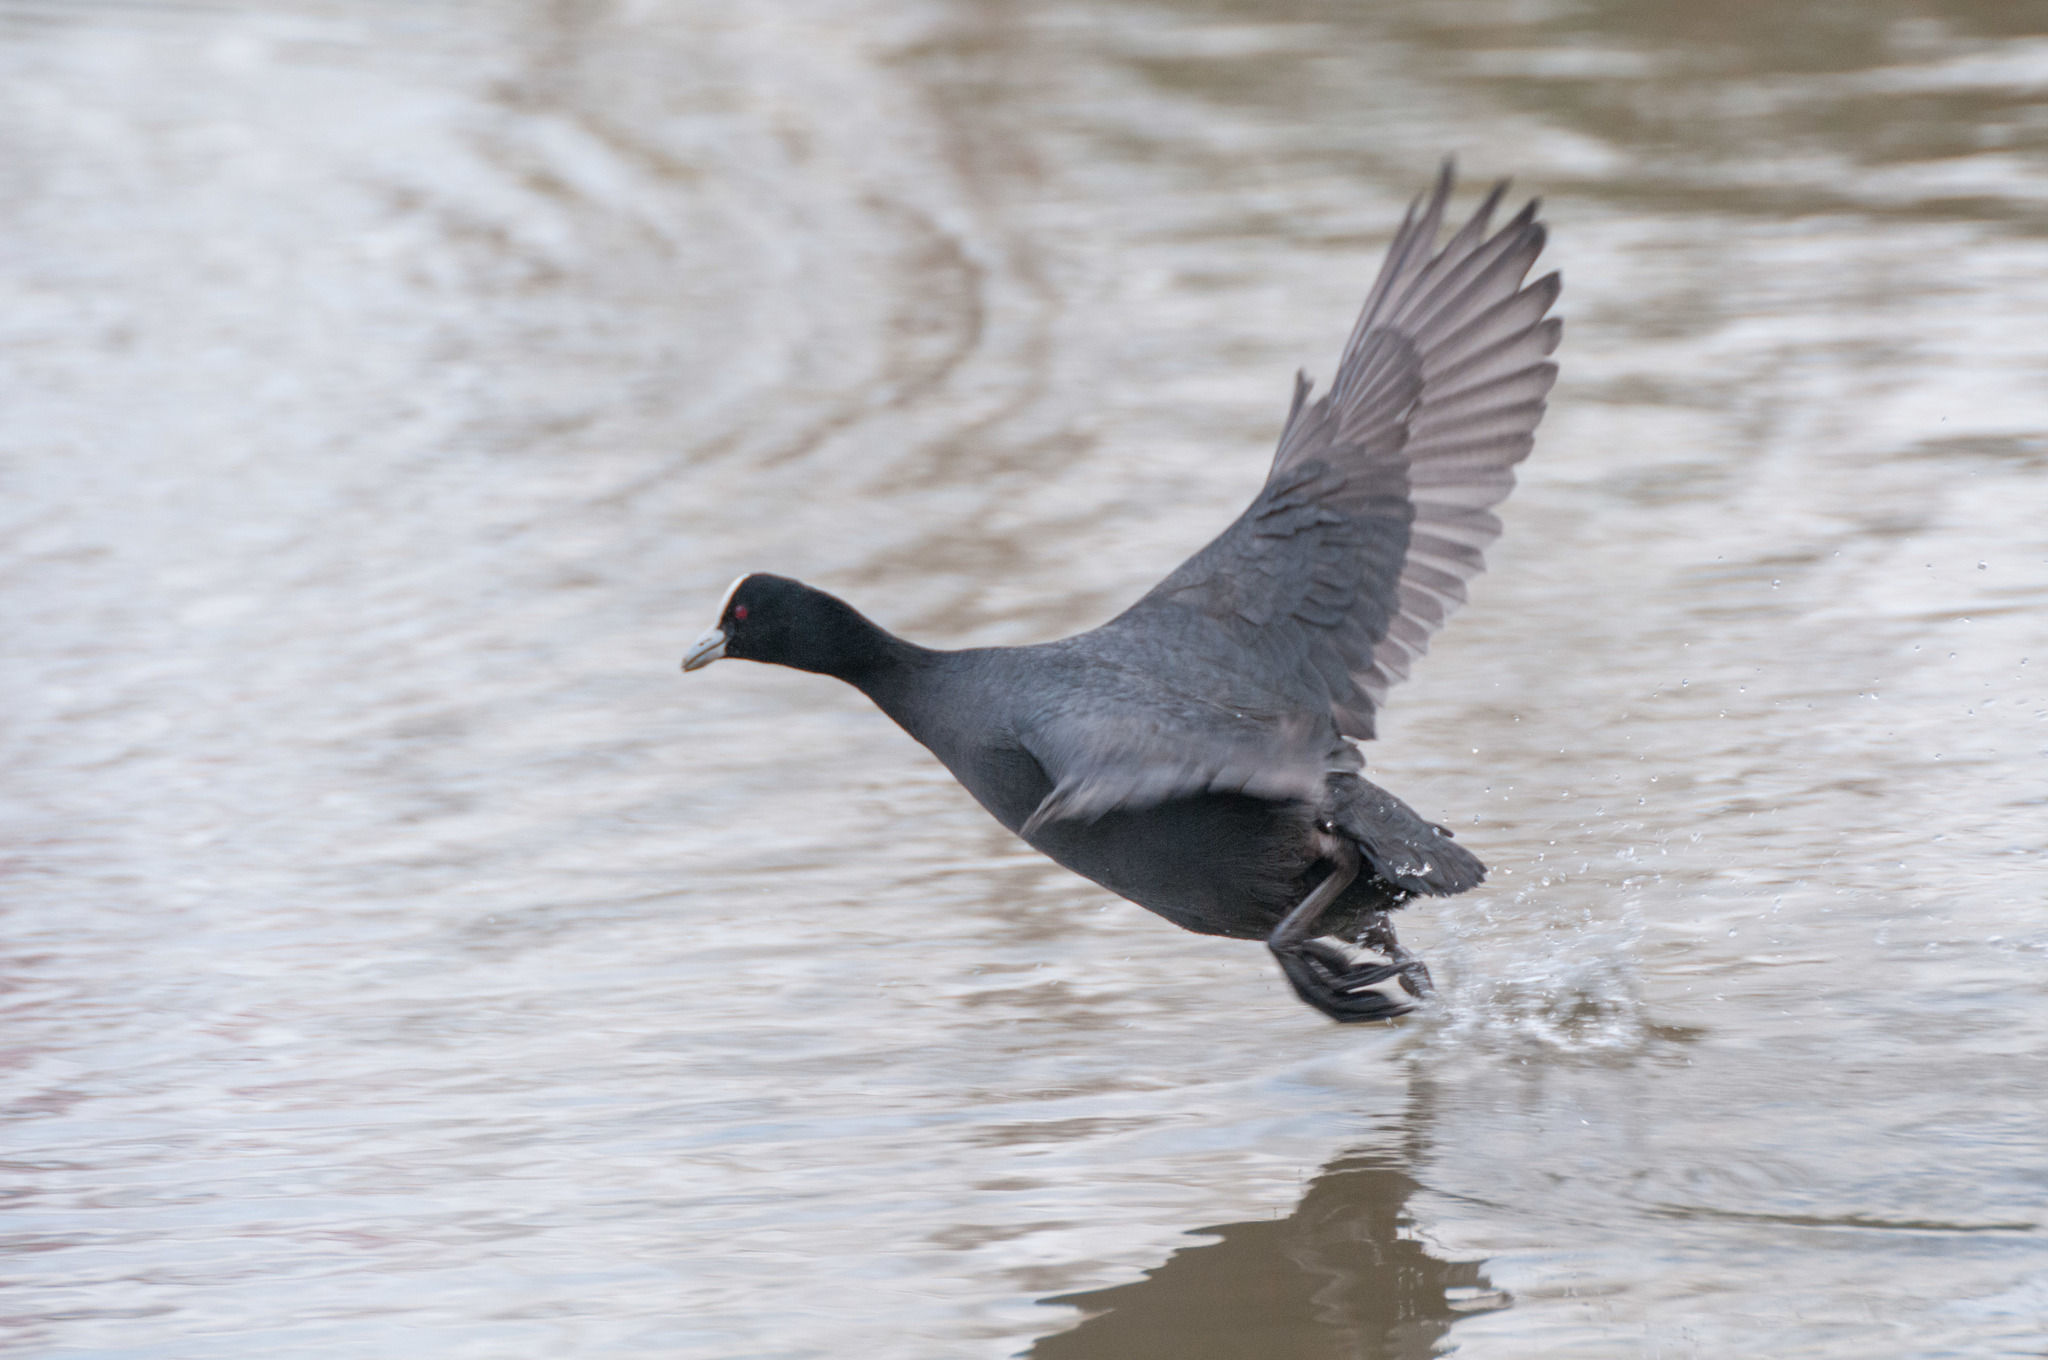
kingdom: Animalia
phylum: Chordata
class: Aves
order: Gruiformes
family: Rallidae
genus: Fulica
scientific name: Fulica atra
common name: Eurasian coot
